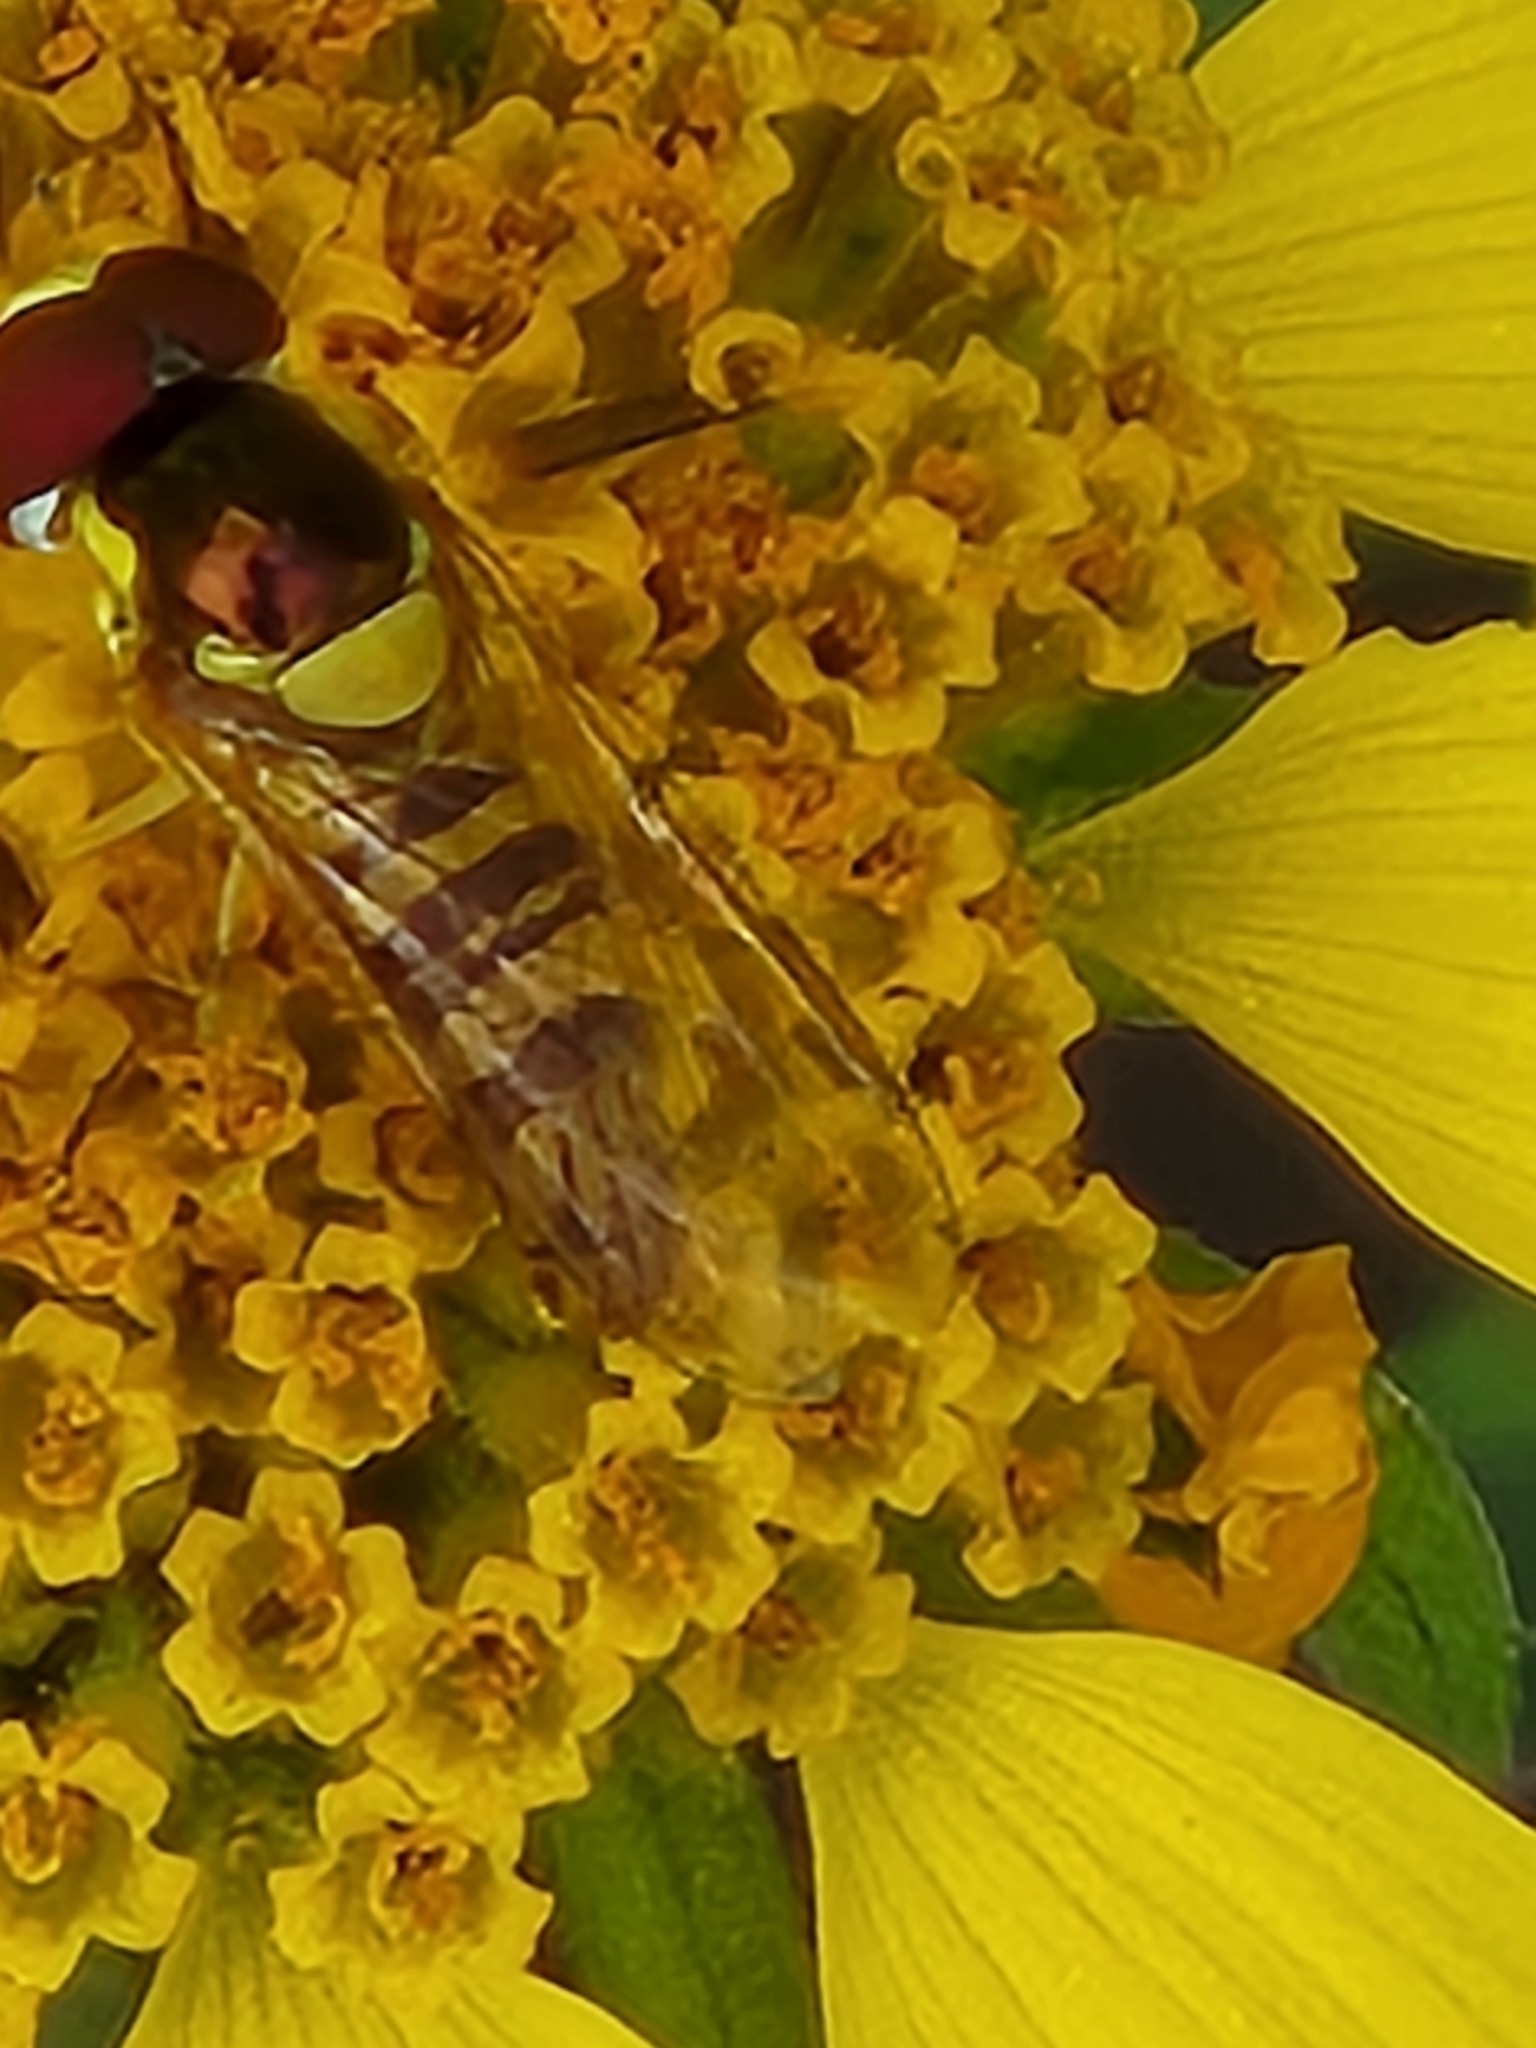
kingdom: Animalia
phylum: Arthropoda
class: Insecta
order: Diptera
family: Syrphidae
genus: Allograpta
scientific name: Allograpta obliqua
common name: Common oblique syrphid
